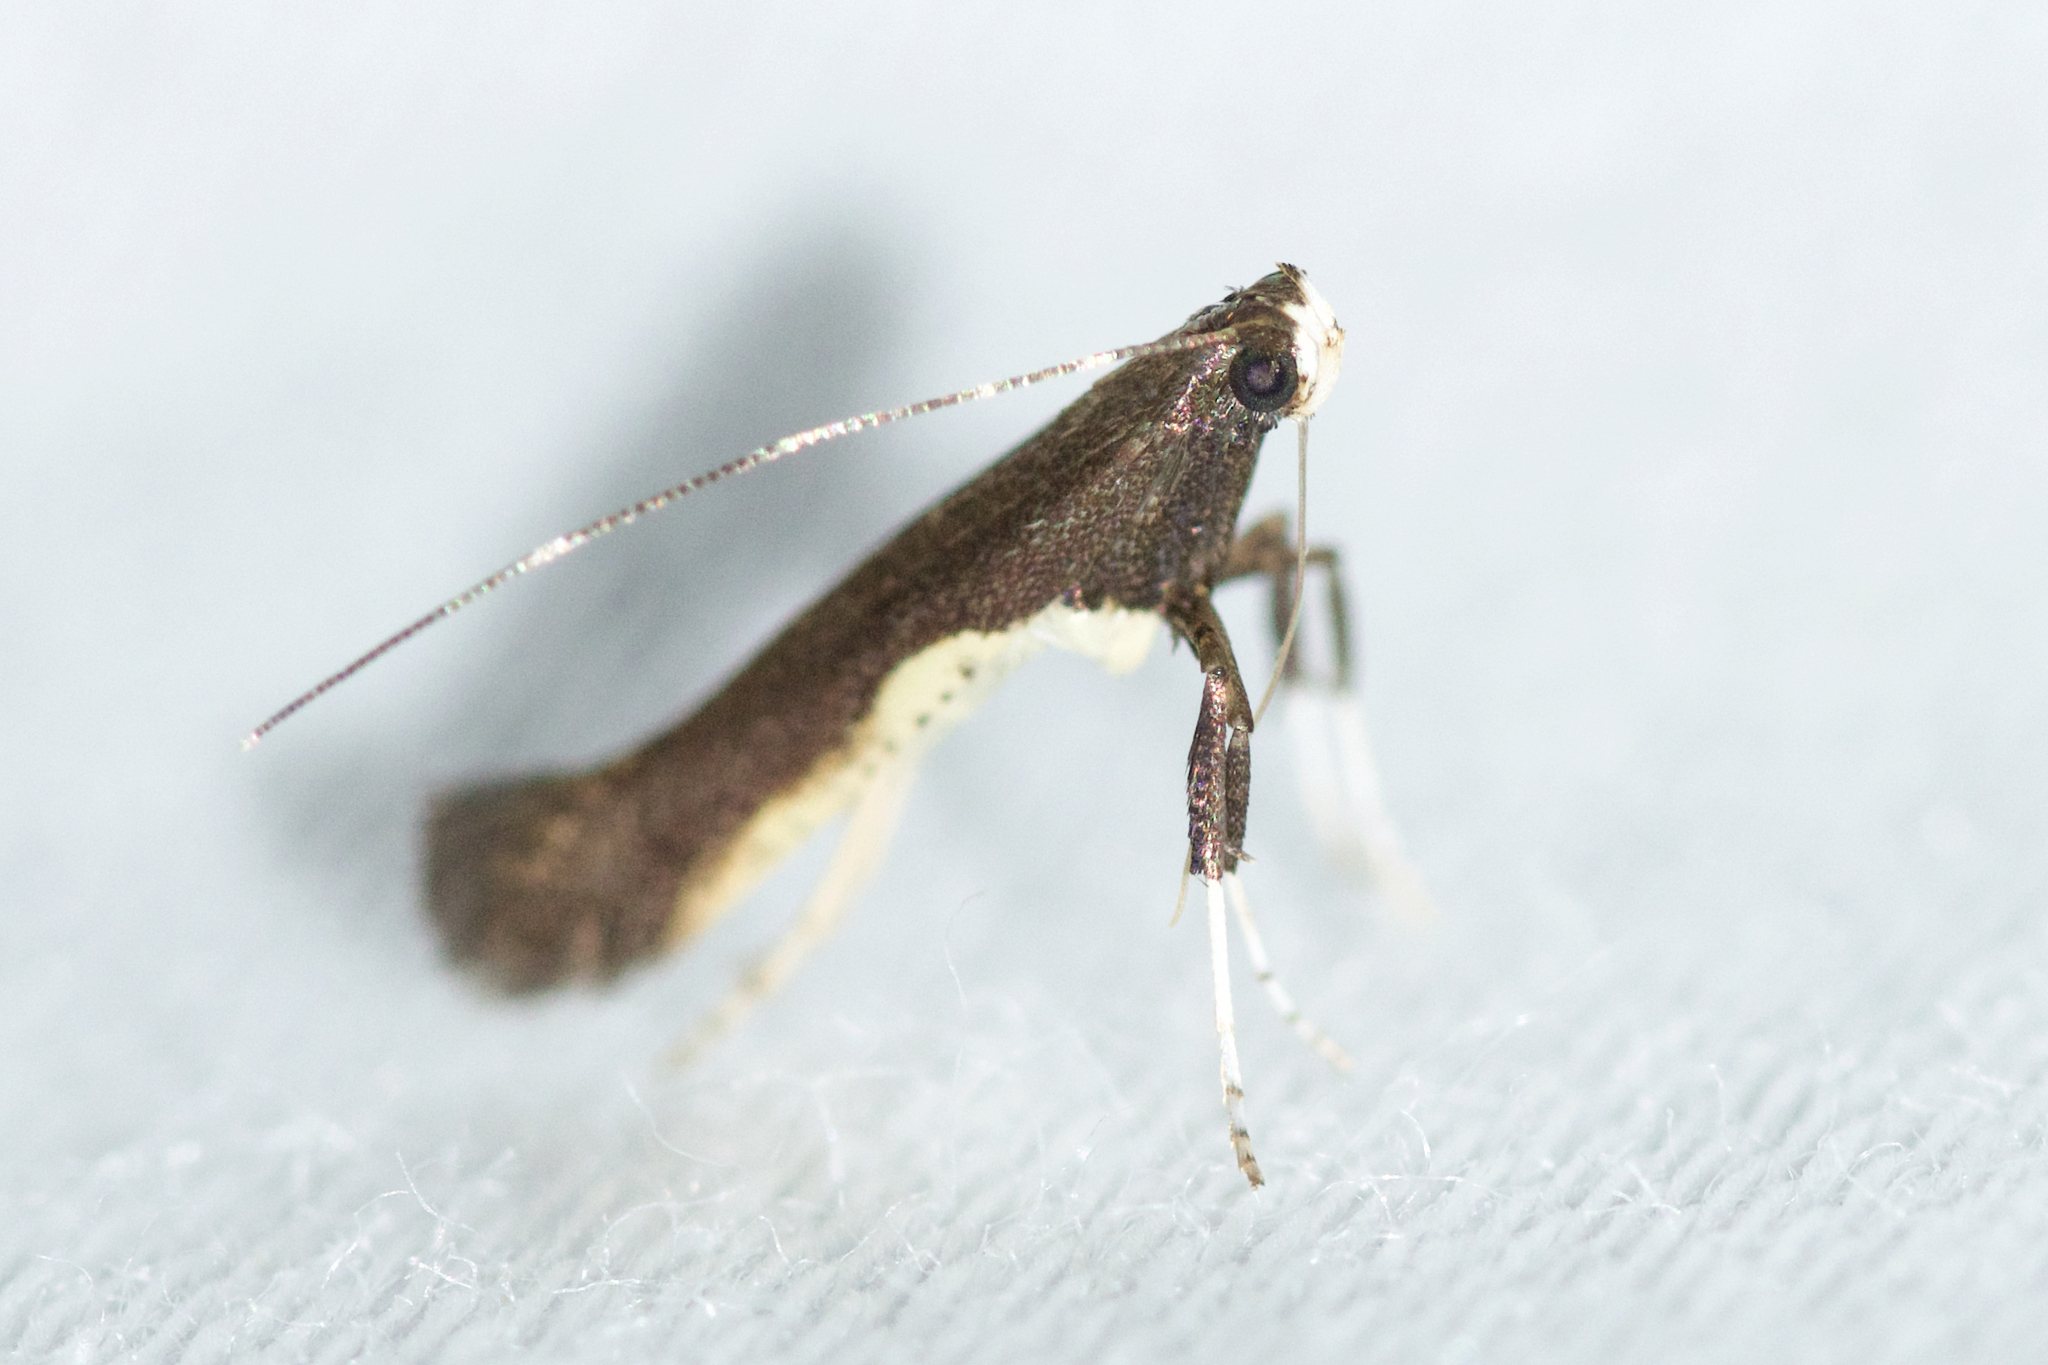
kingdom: Animalia
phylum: Arthropoda
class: Insecta
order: Lepidoptera
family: Gracillariidae
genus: Caloptilia
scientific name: Caloptilia belfragella
